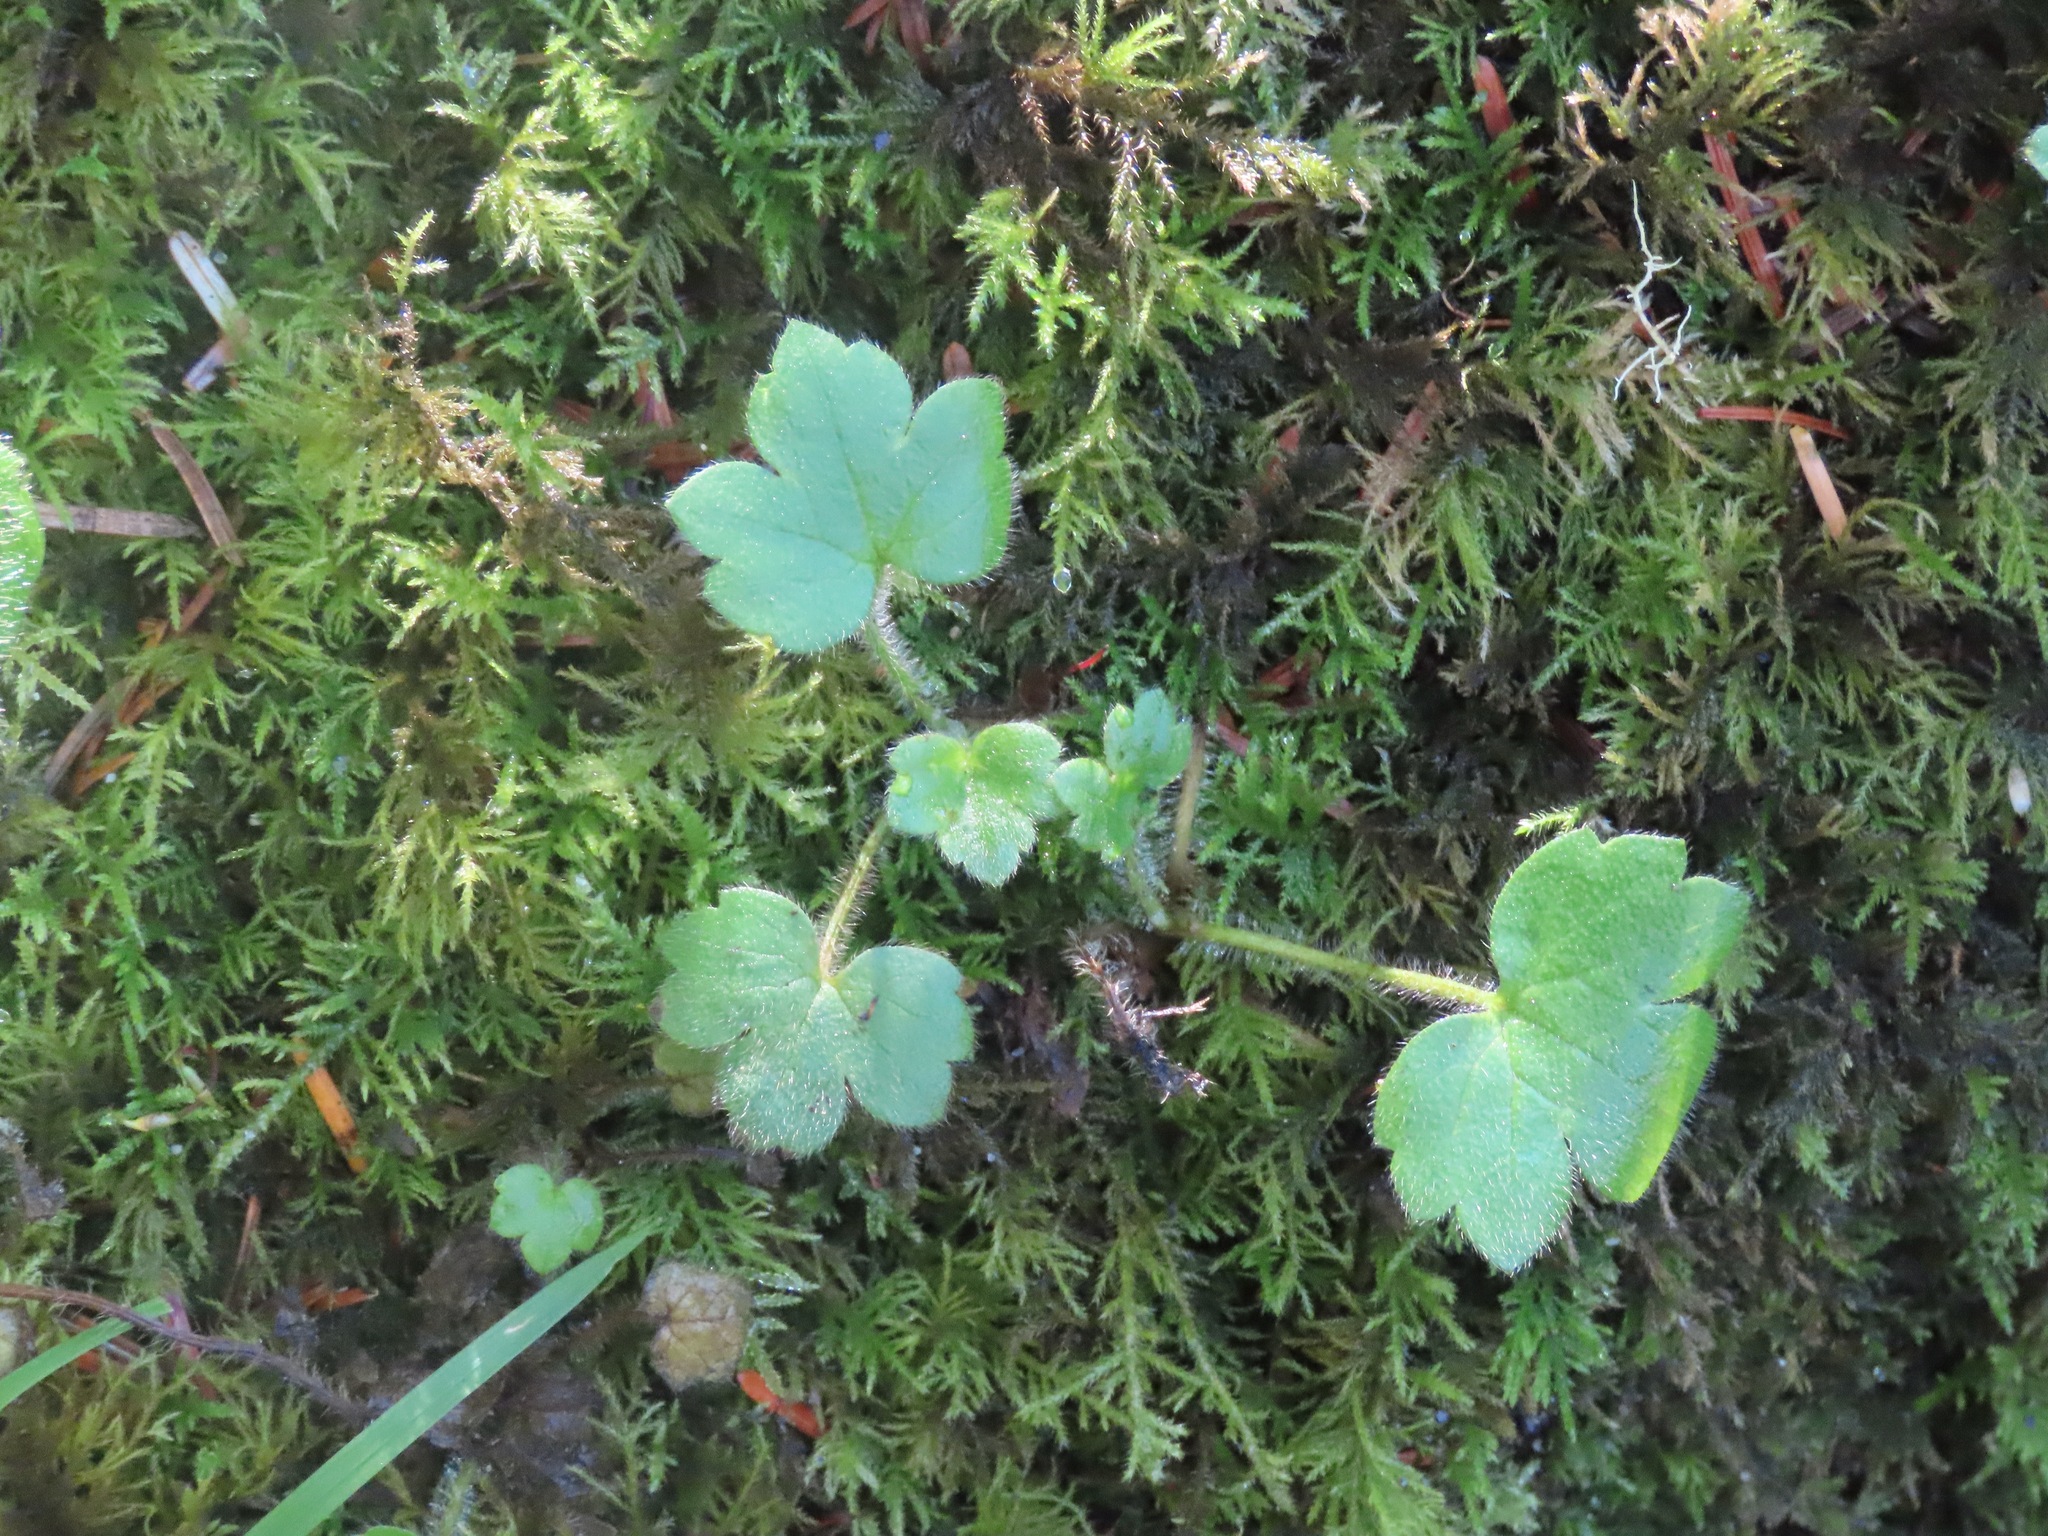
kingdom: Plantae
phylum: Tracheophyta
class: Magnoliopsida
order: Ranunculales
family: Ranunculaceae
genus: Ranunculus
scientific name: Ranunculus uncinatus
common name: Little buttercup
